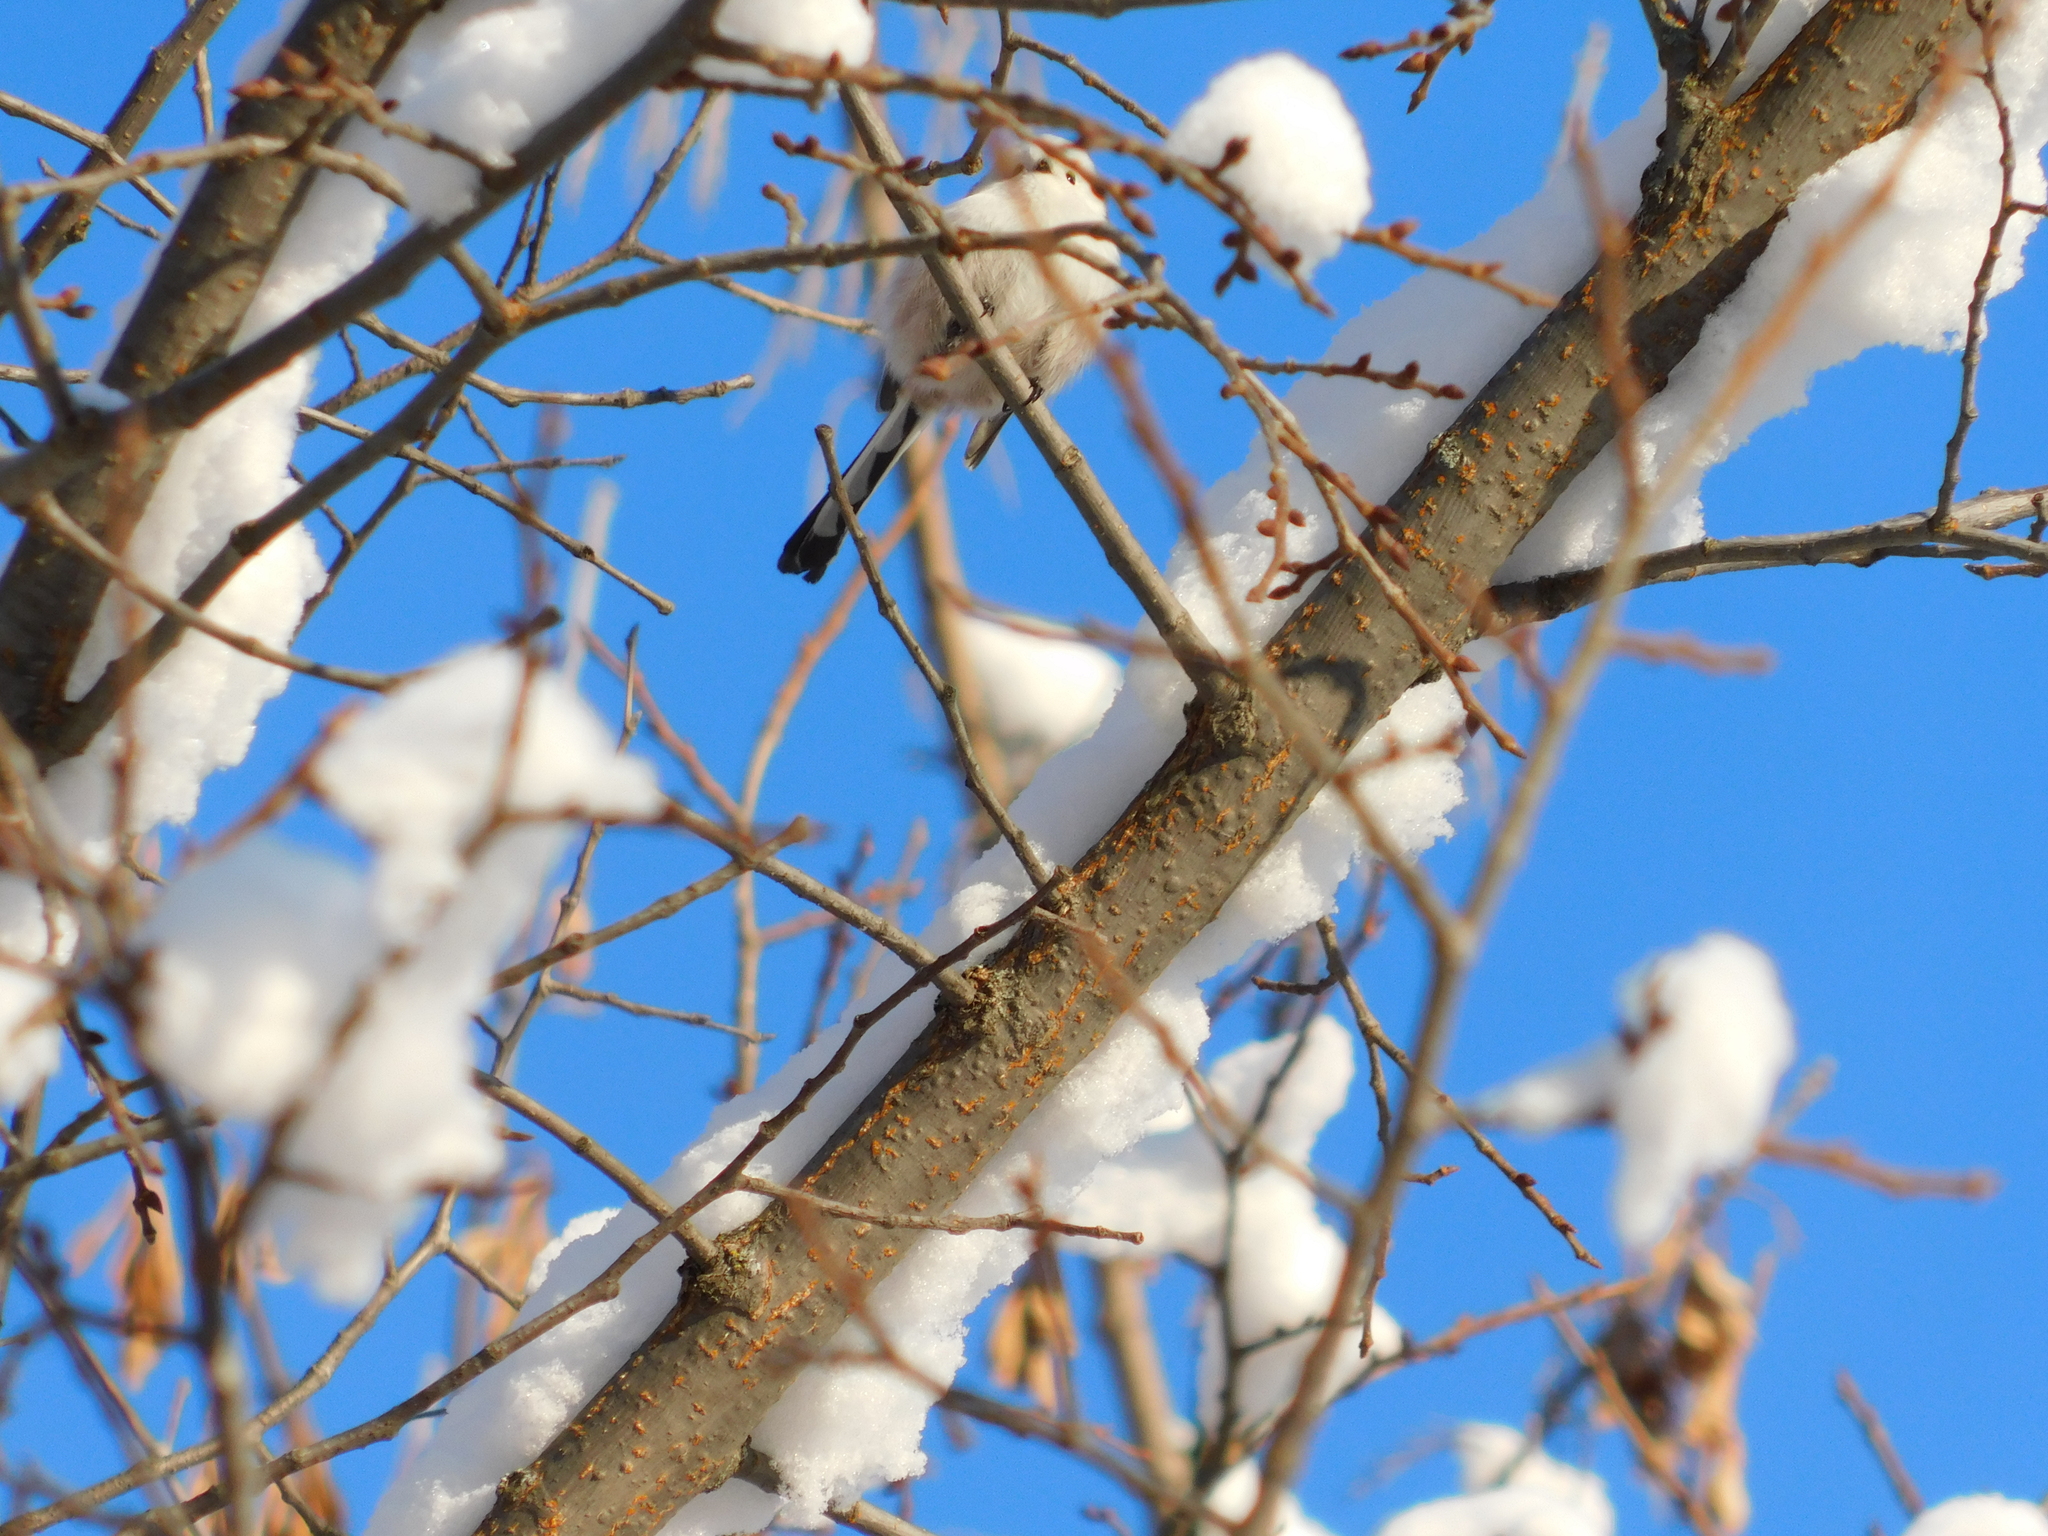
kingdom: Animalia
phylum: Chordata
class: Aves
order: Passeriformes
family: Aegithalidae
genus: Aegithalos
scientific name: Aegithalos caudatus
